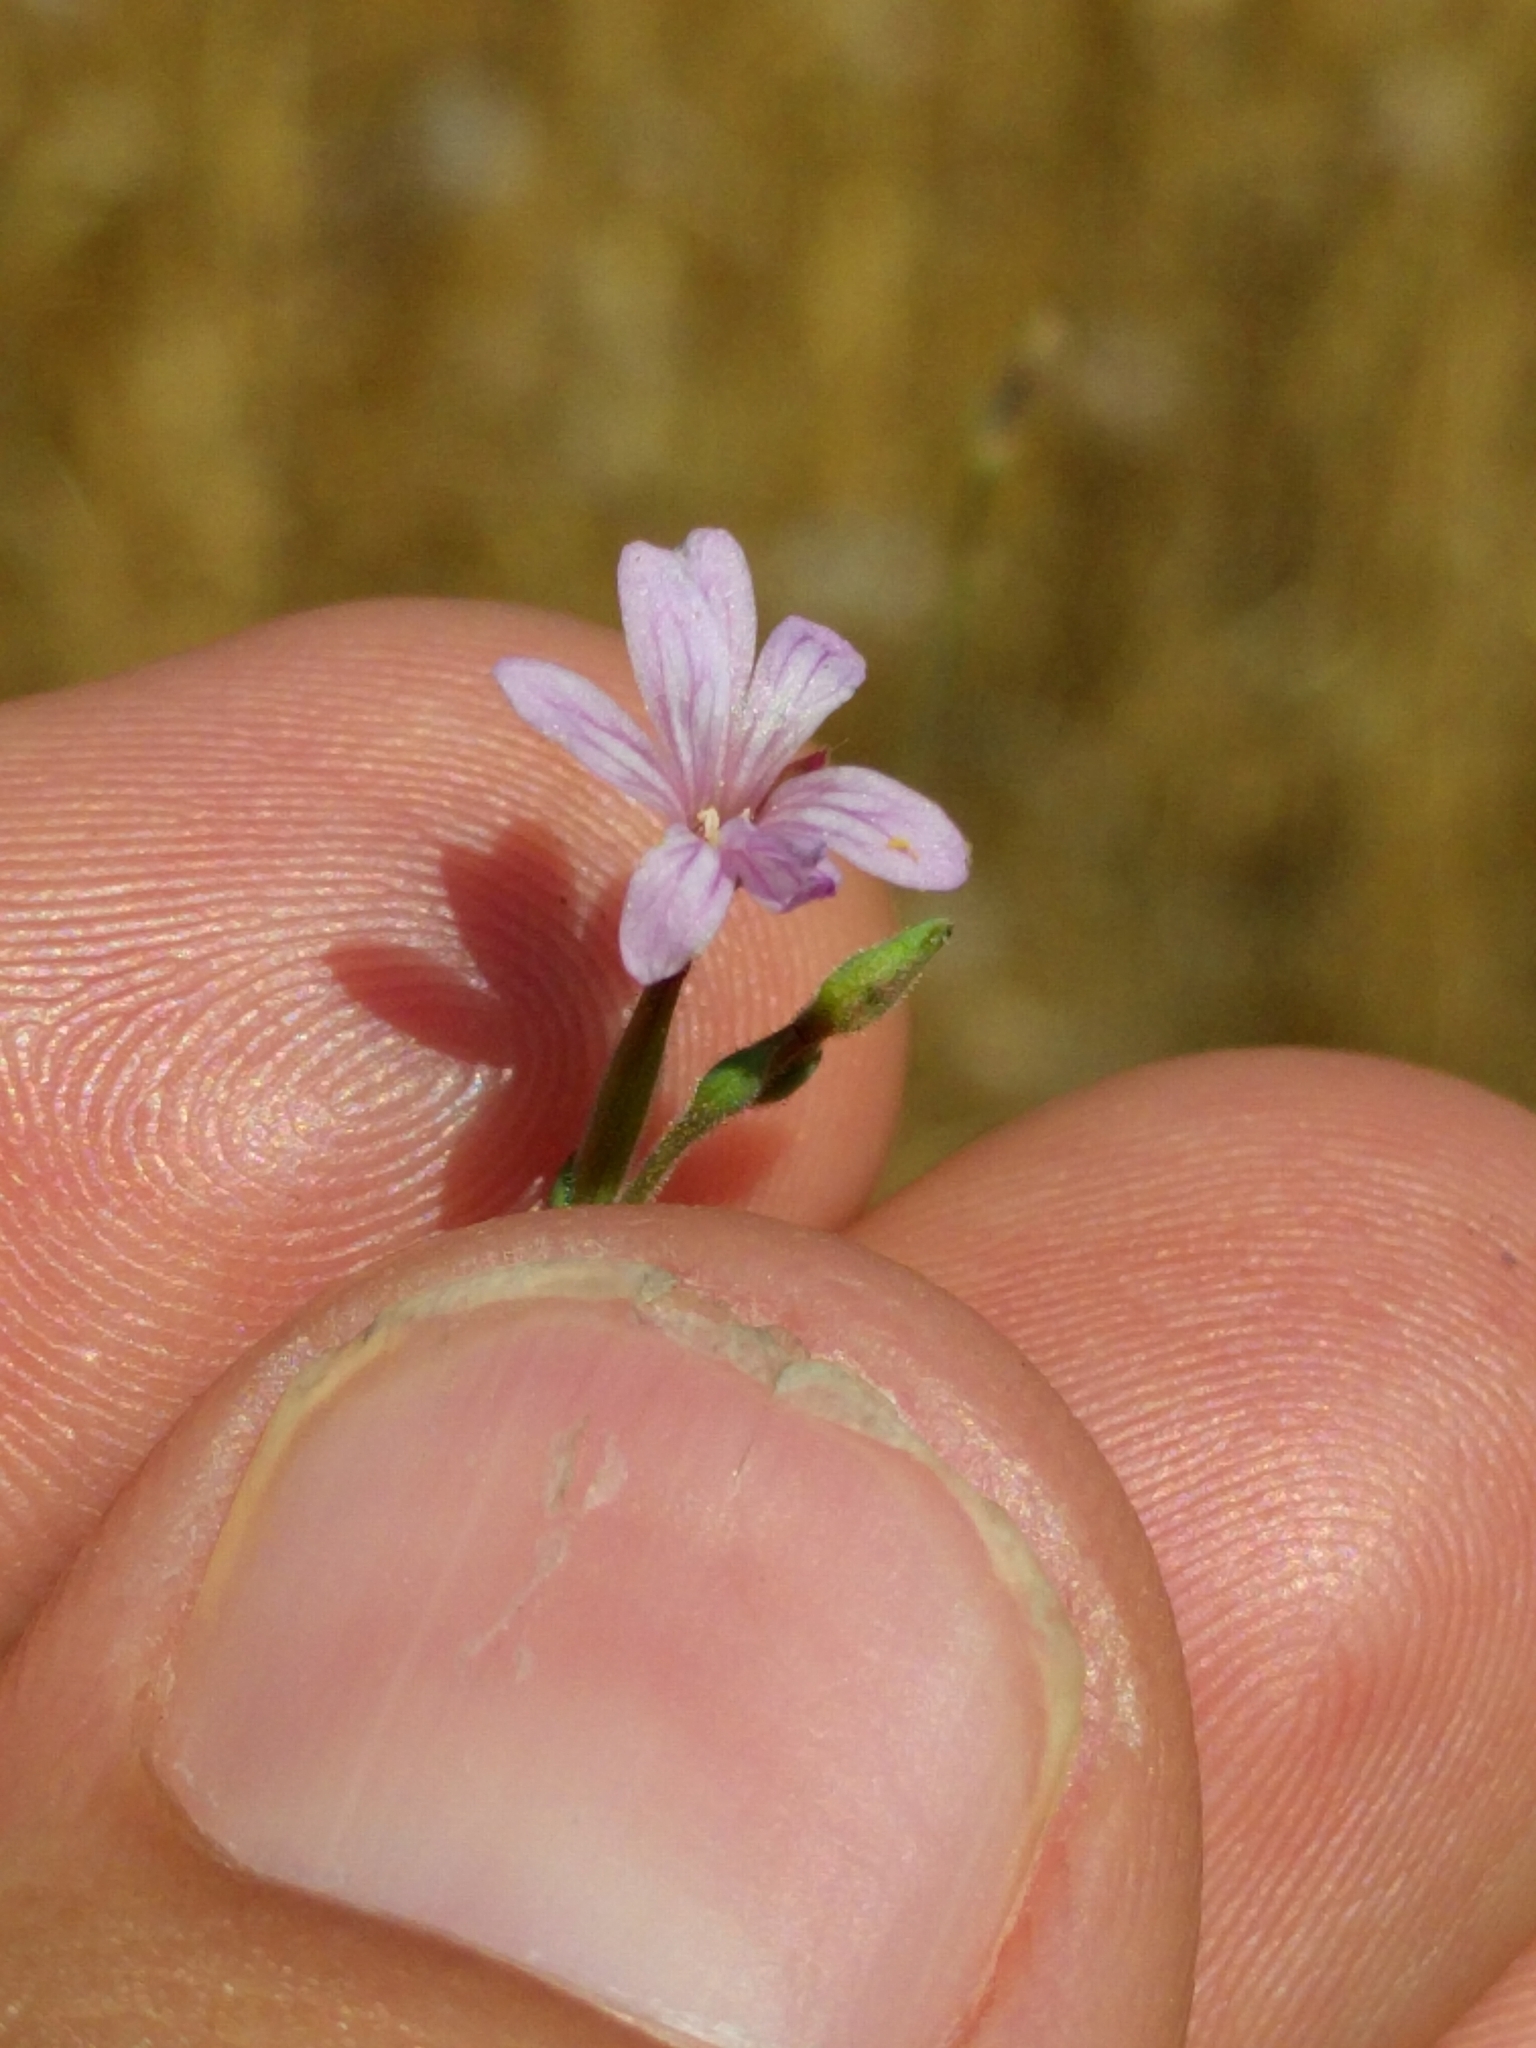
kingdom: Plantae
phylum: Tracheophyta
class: Magnoliopsida
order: Myrtales
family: Onagraceae
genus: Epilobium
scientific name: Epilobium brachycarpum
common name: Annual willowherb
